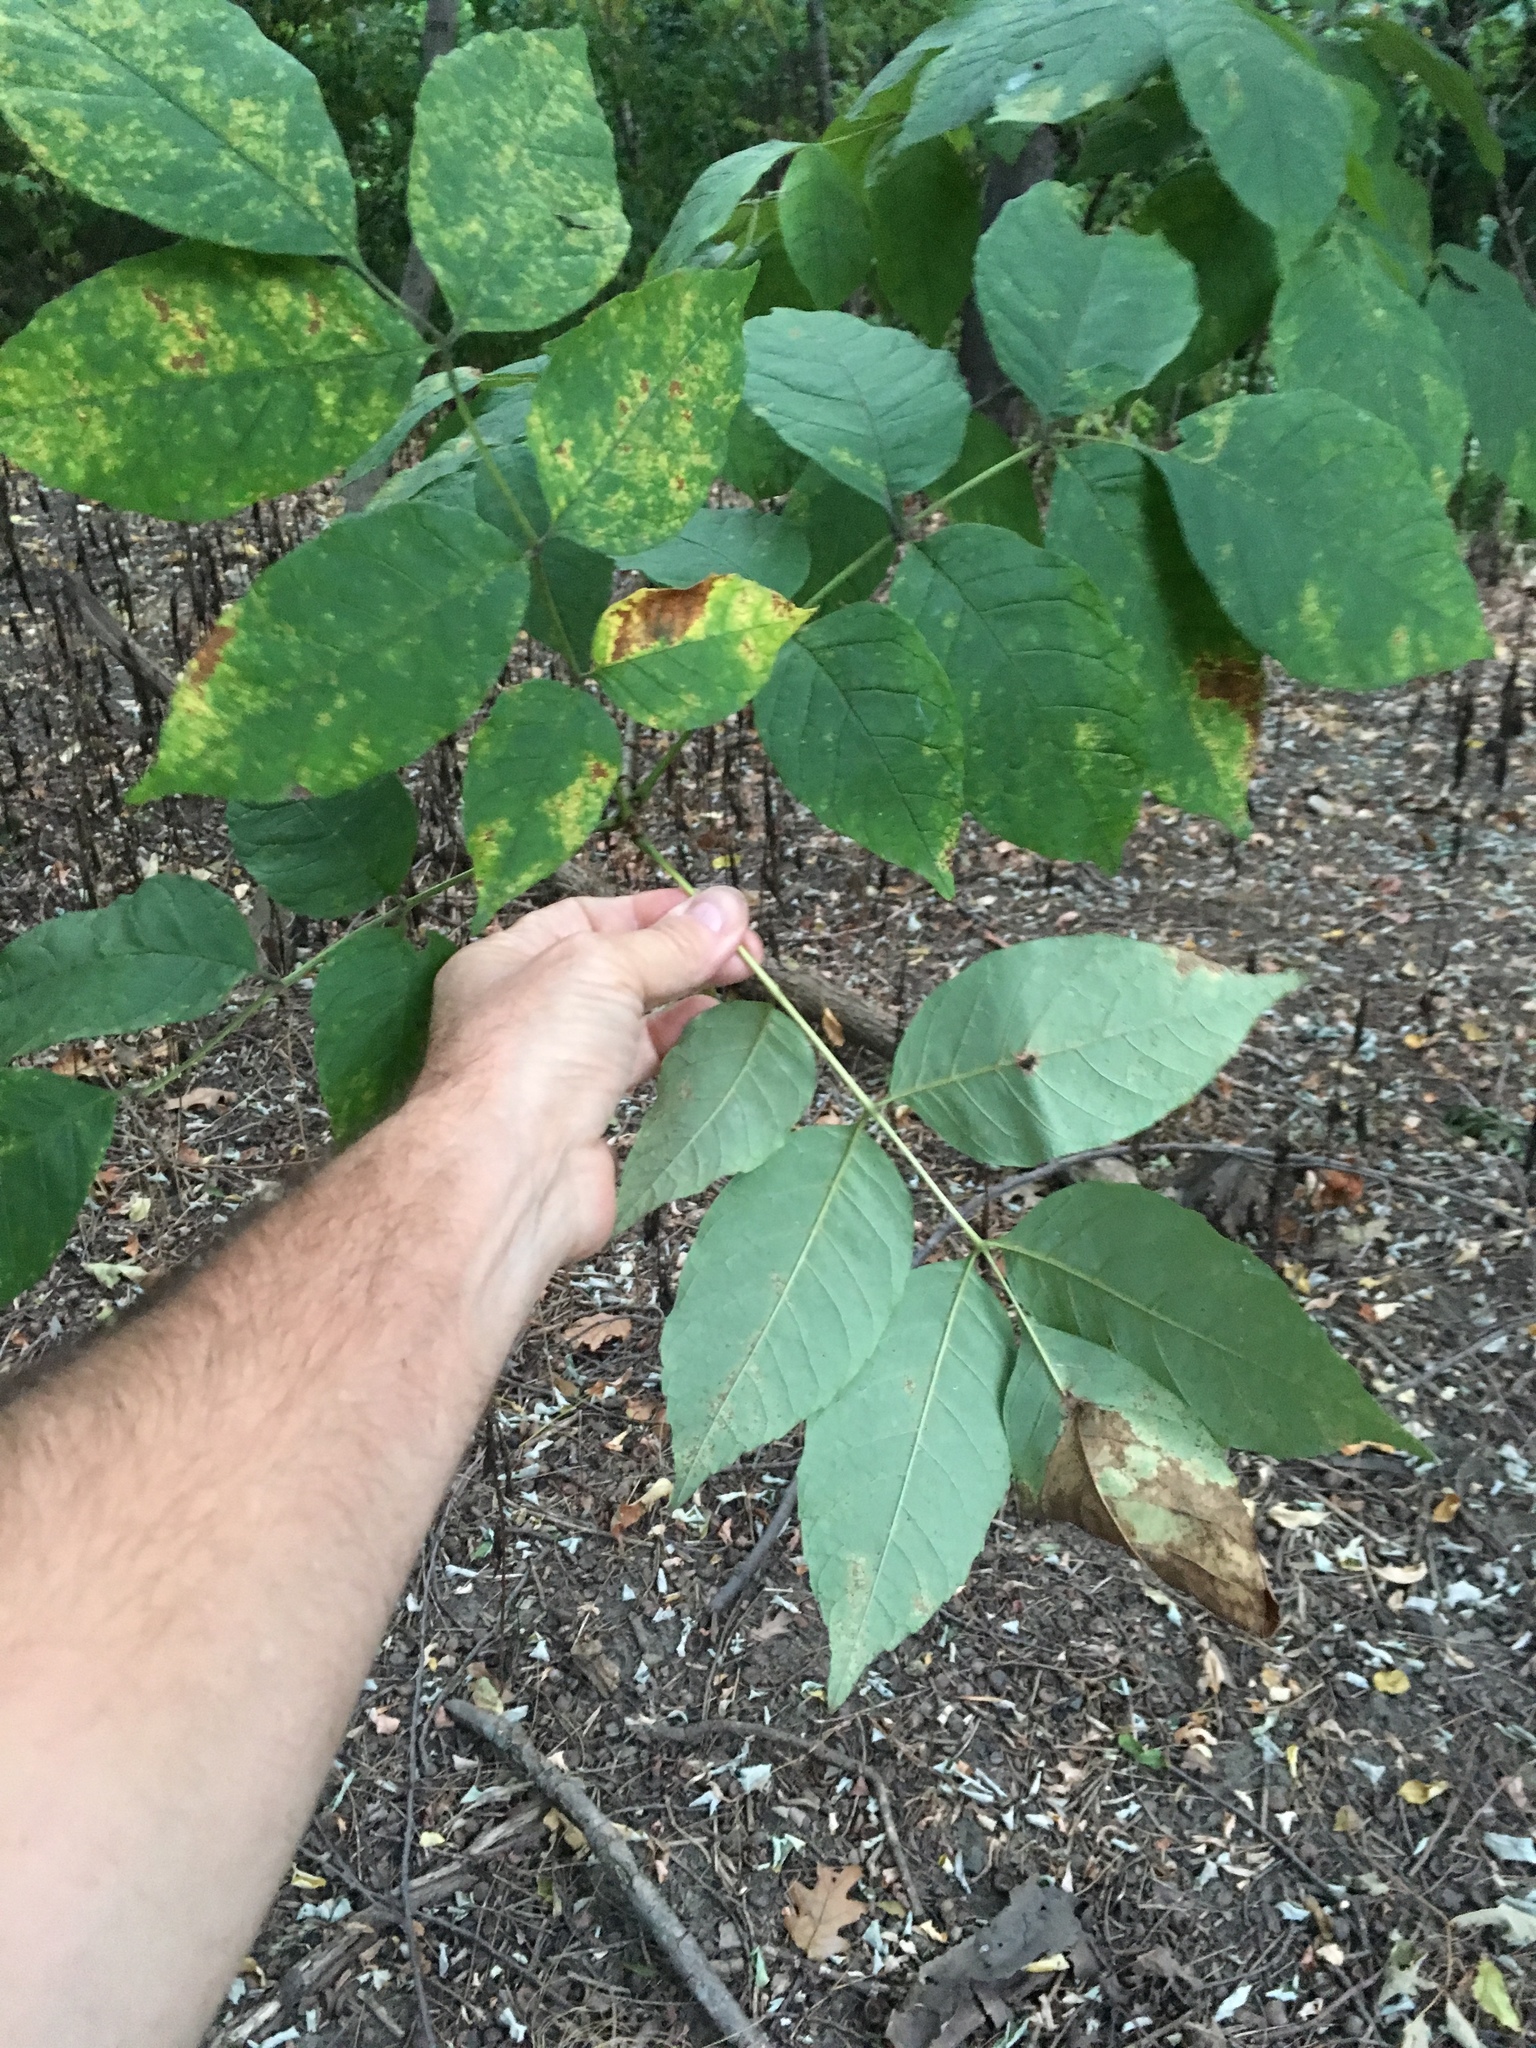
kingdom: Plantae
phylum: Tracheophyta
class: Magnoliopsida
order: Lamiales
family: Oleaceae
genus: Fraxinus
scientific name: Fraxinus americana
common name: White ash
